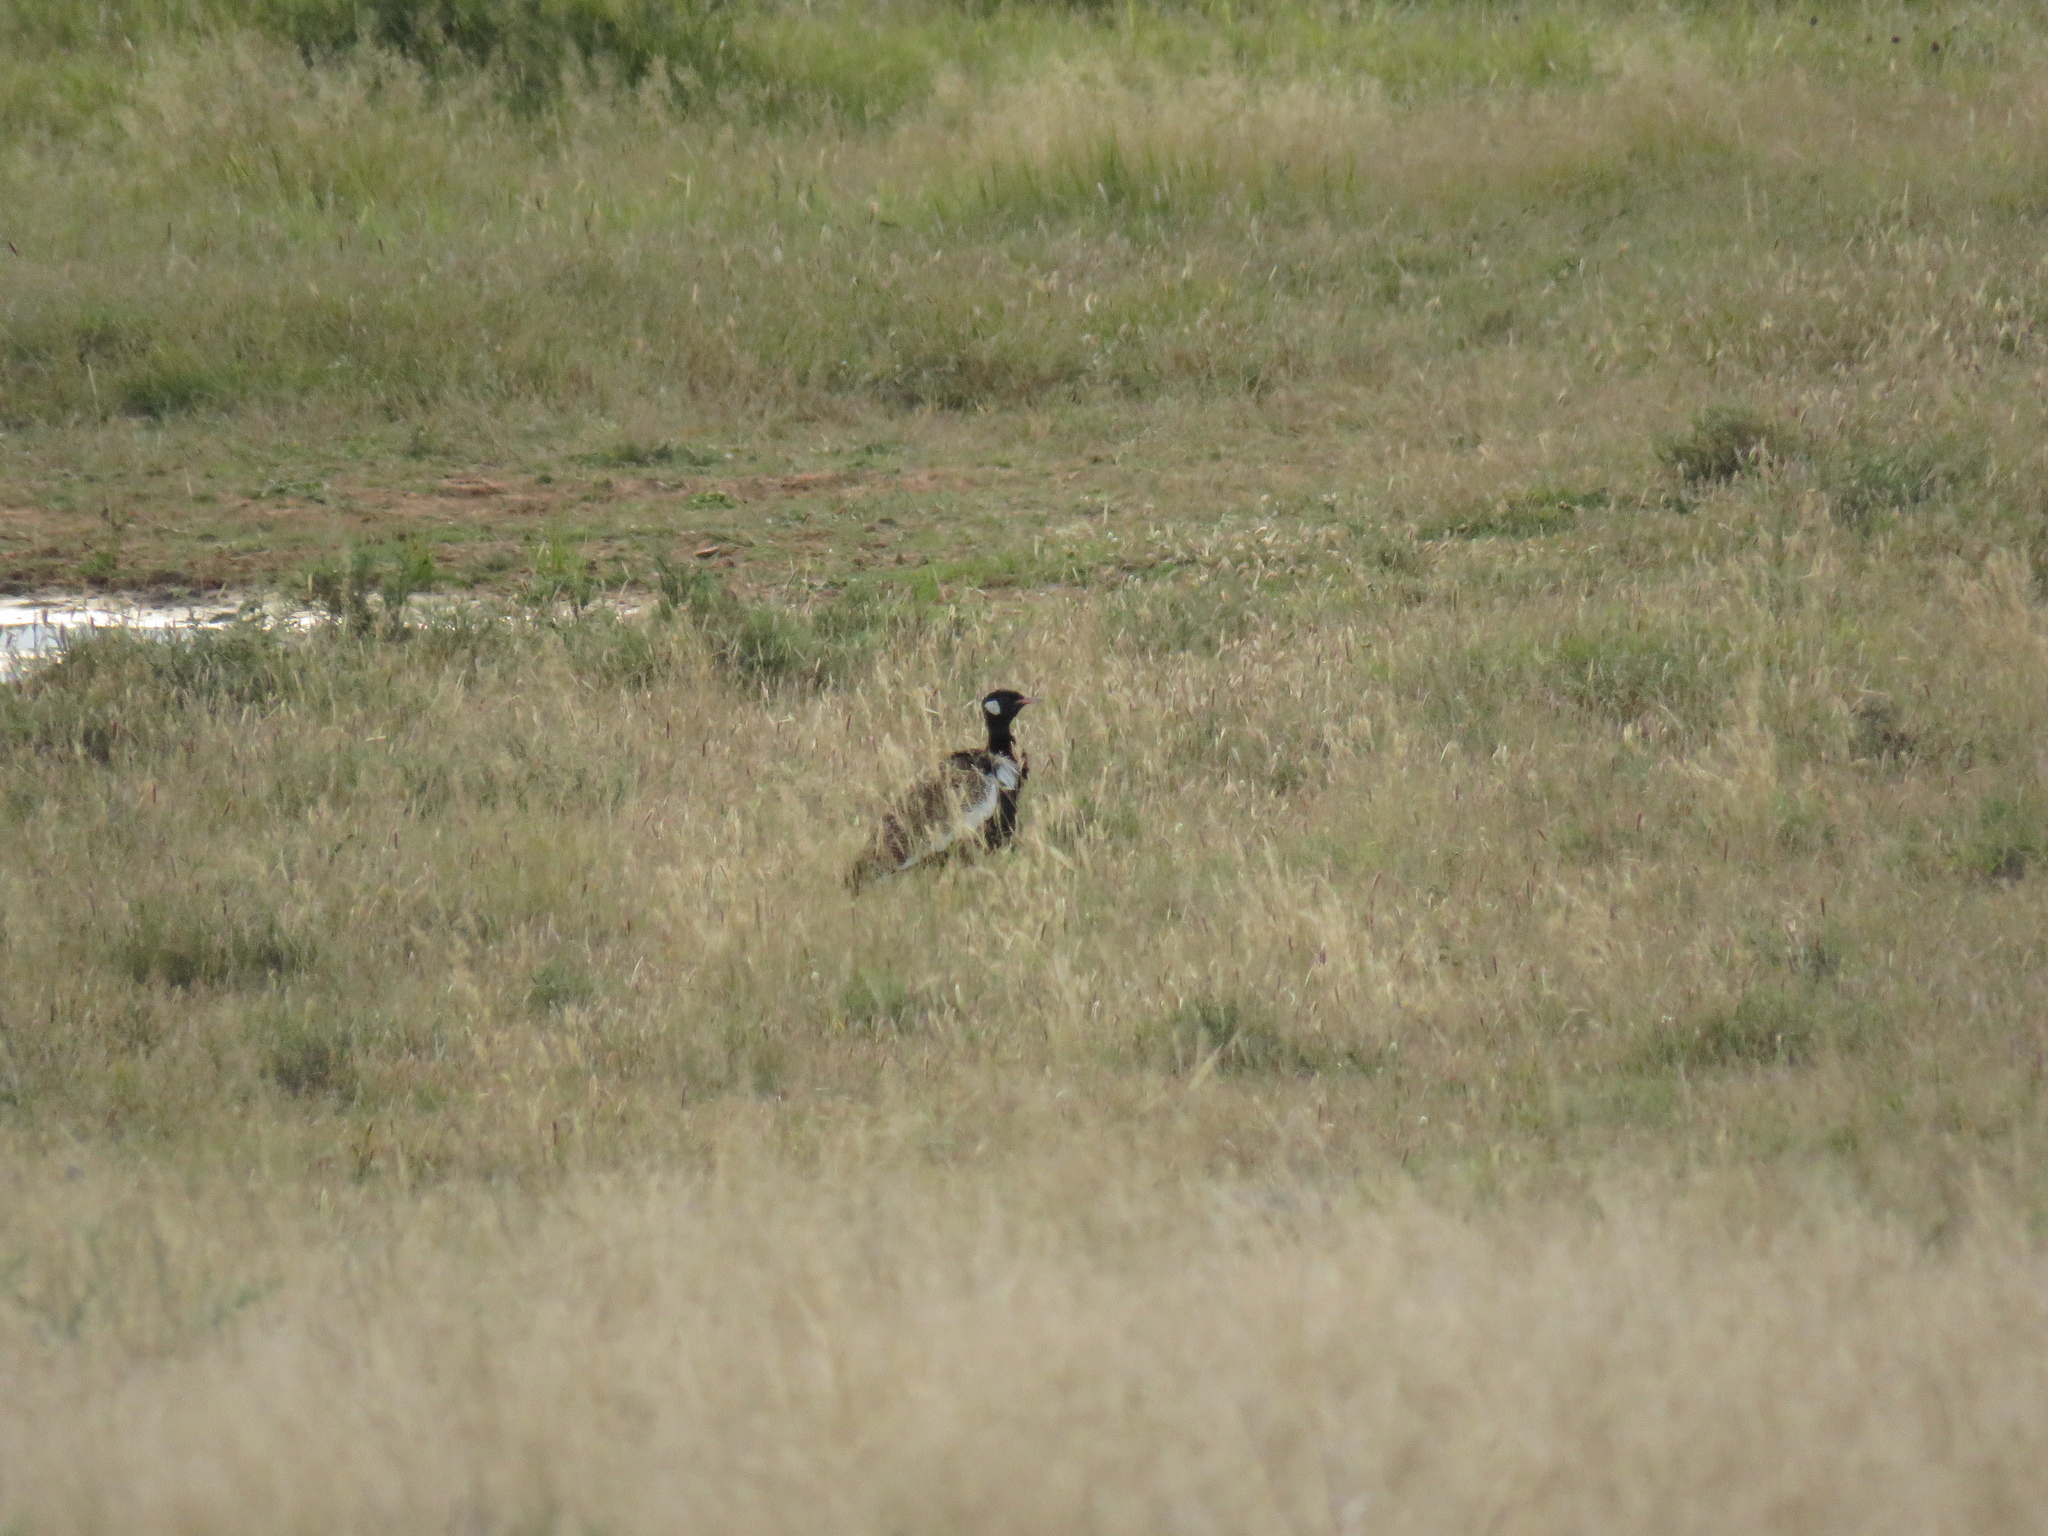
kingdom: Animalia
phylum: Chordata
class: Aves
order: Otidiformes
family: Otididae
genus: Afrotis
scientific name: Afrotis afraoides
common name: Northern black korhaan
